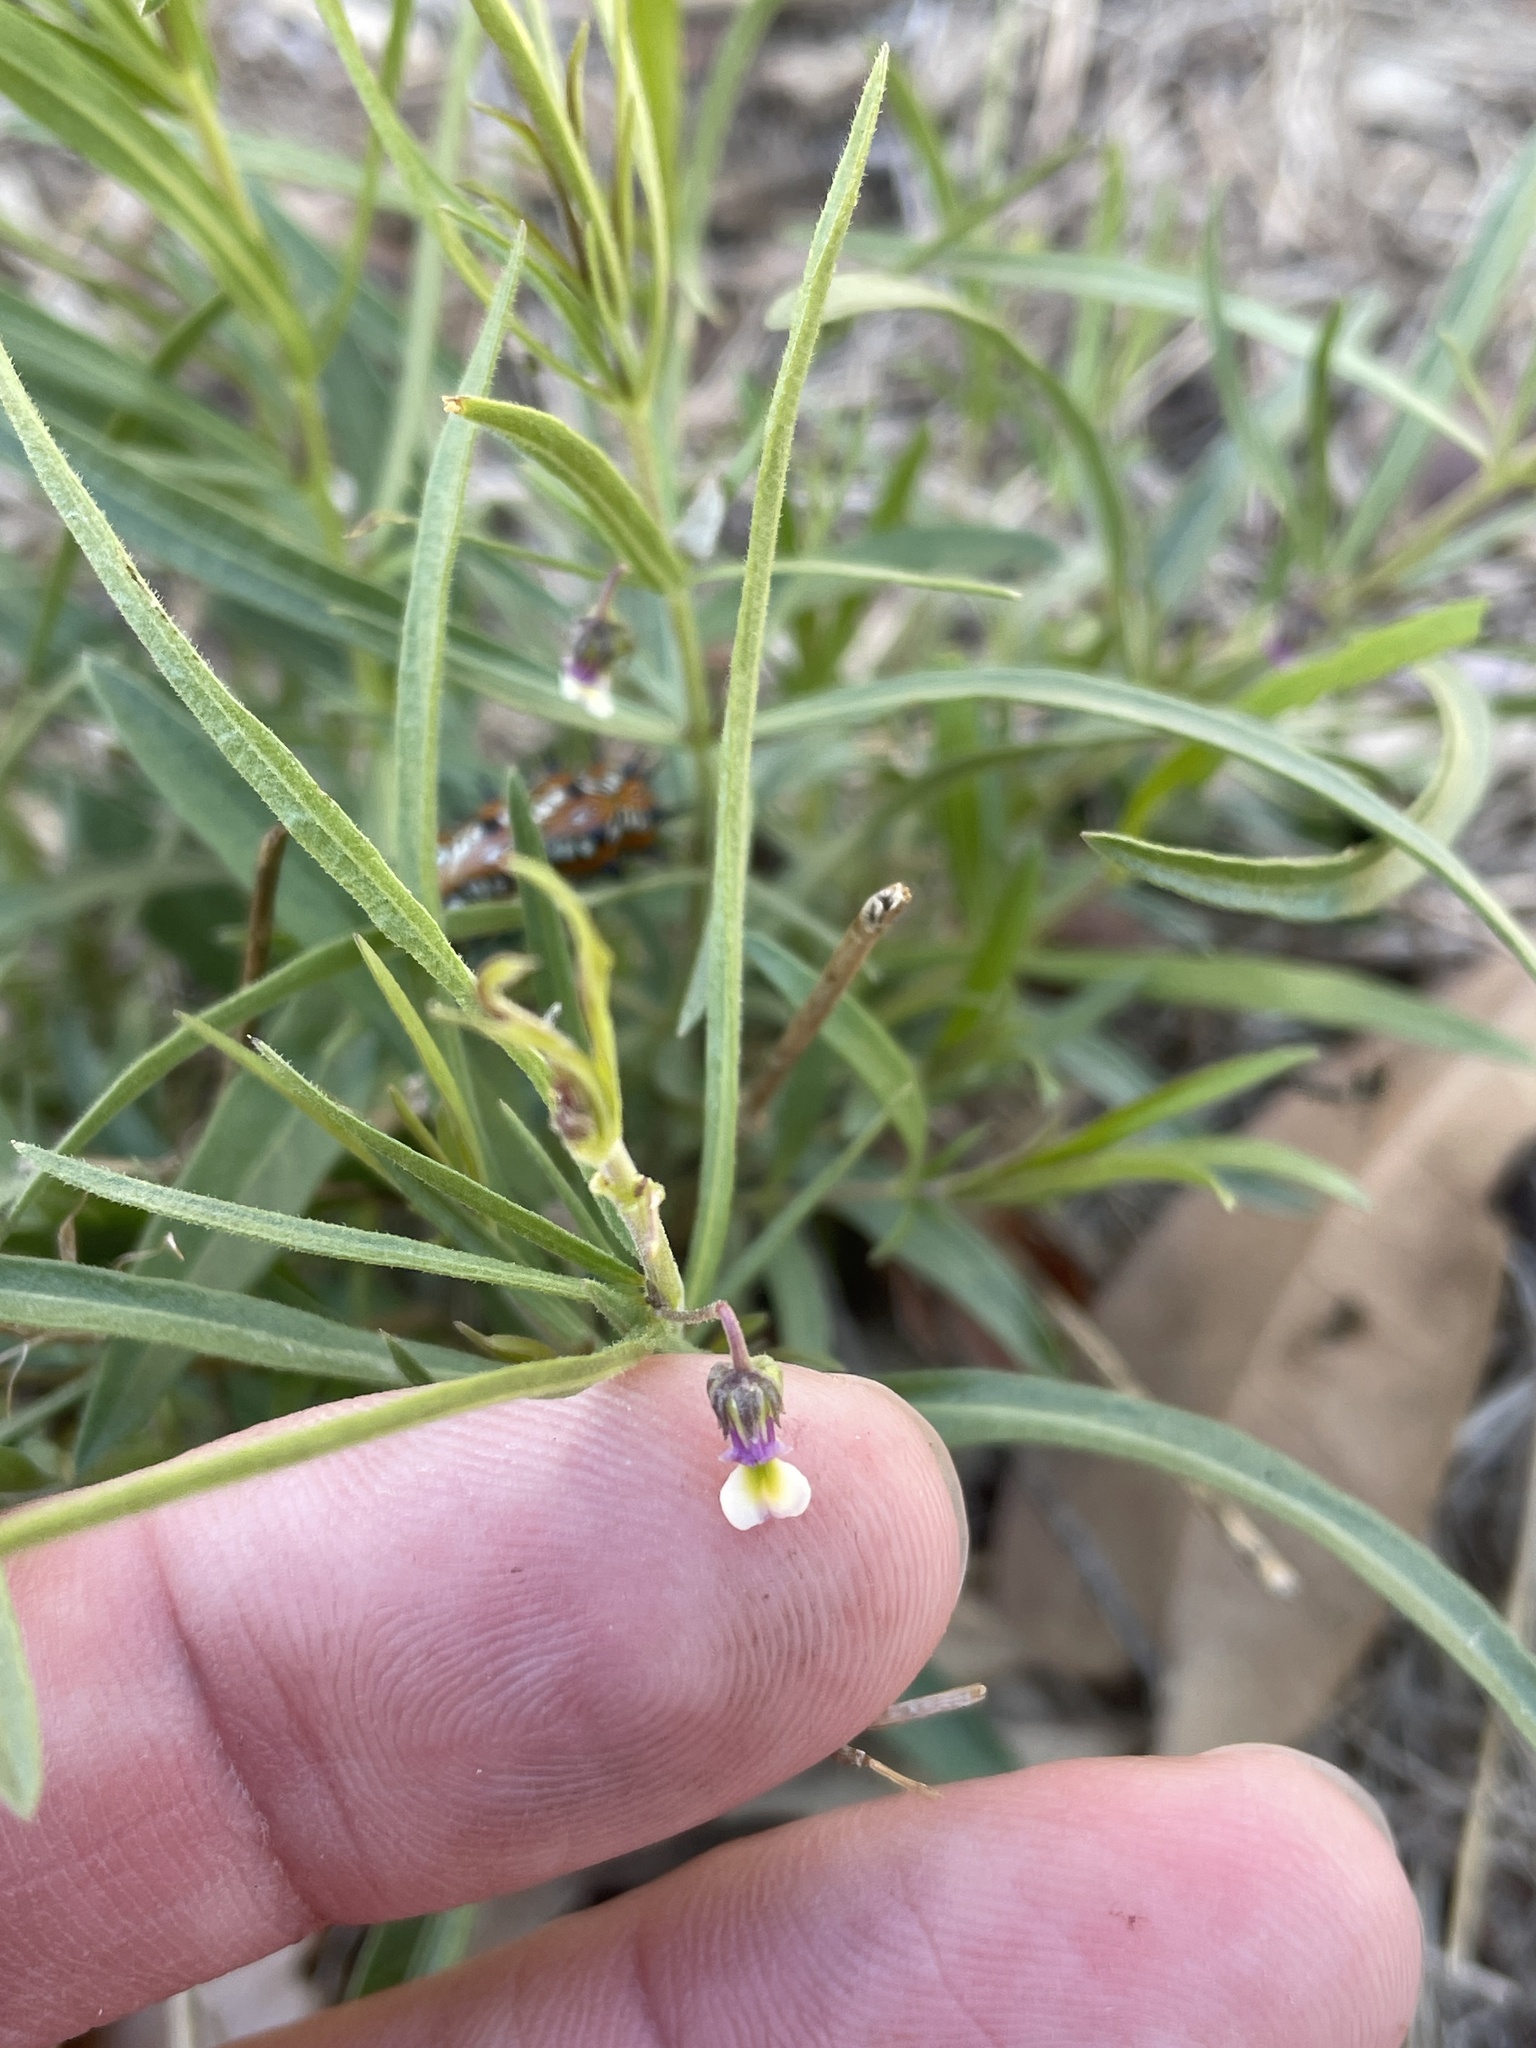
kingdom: Plantae
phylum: Tracheophyta
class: Magnoliopsida
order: Malpighiales
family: Violaceae
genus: Pombalia
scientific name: Pombalia verticillata
